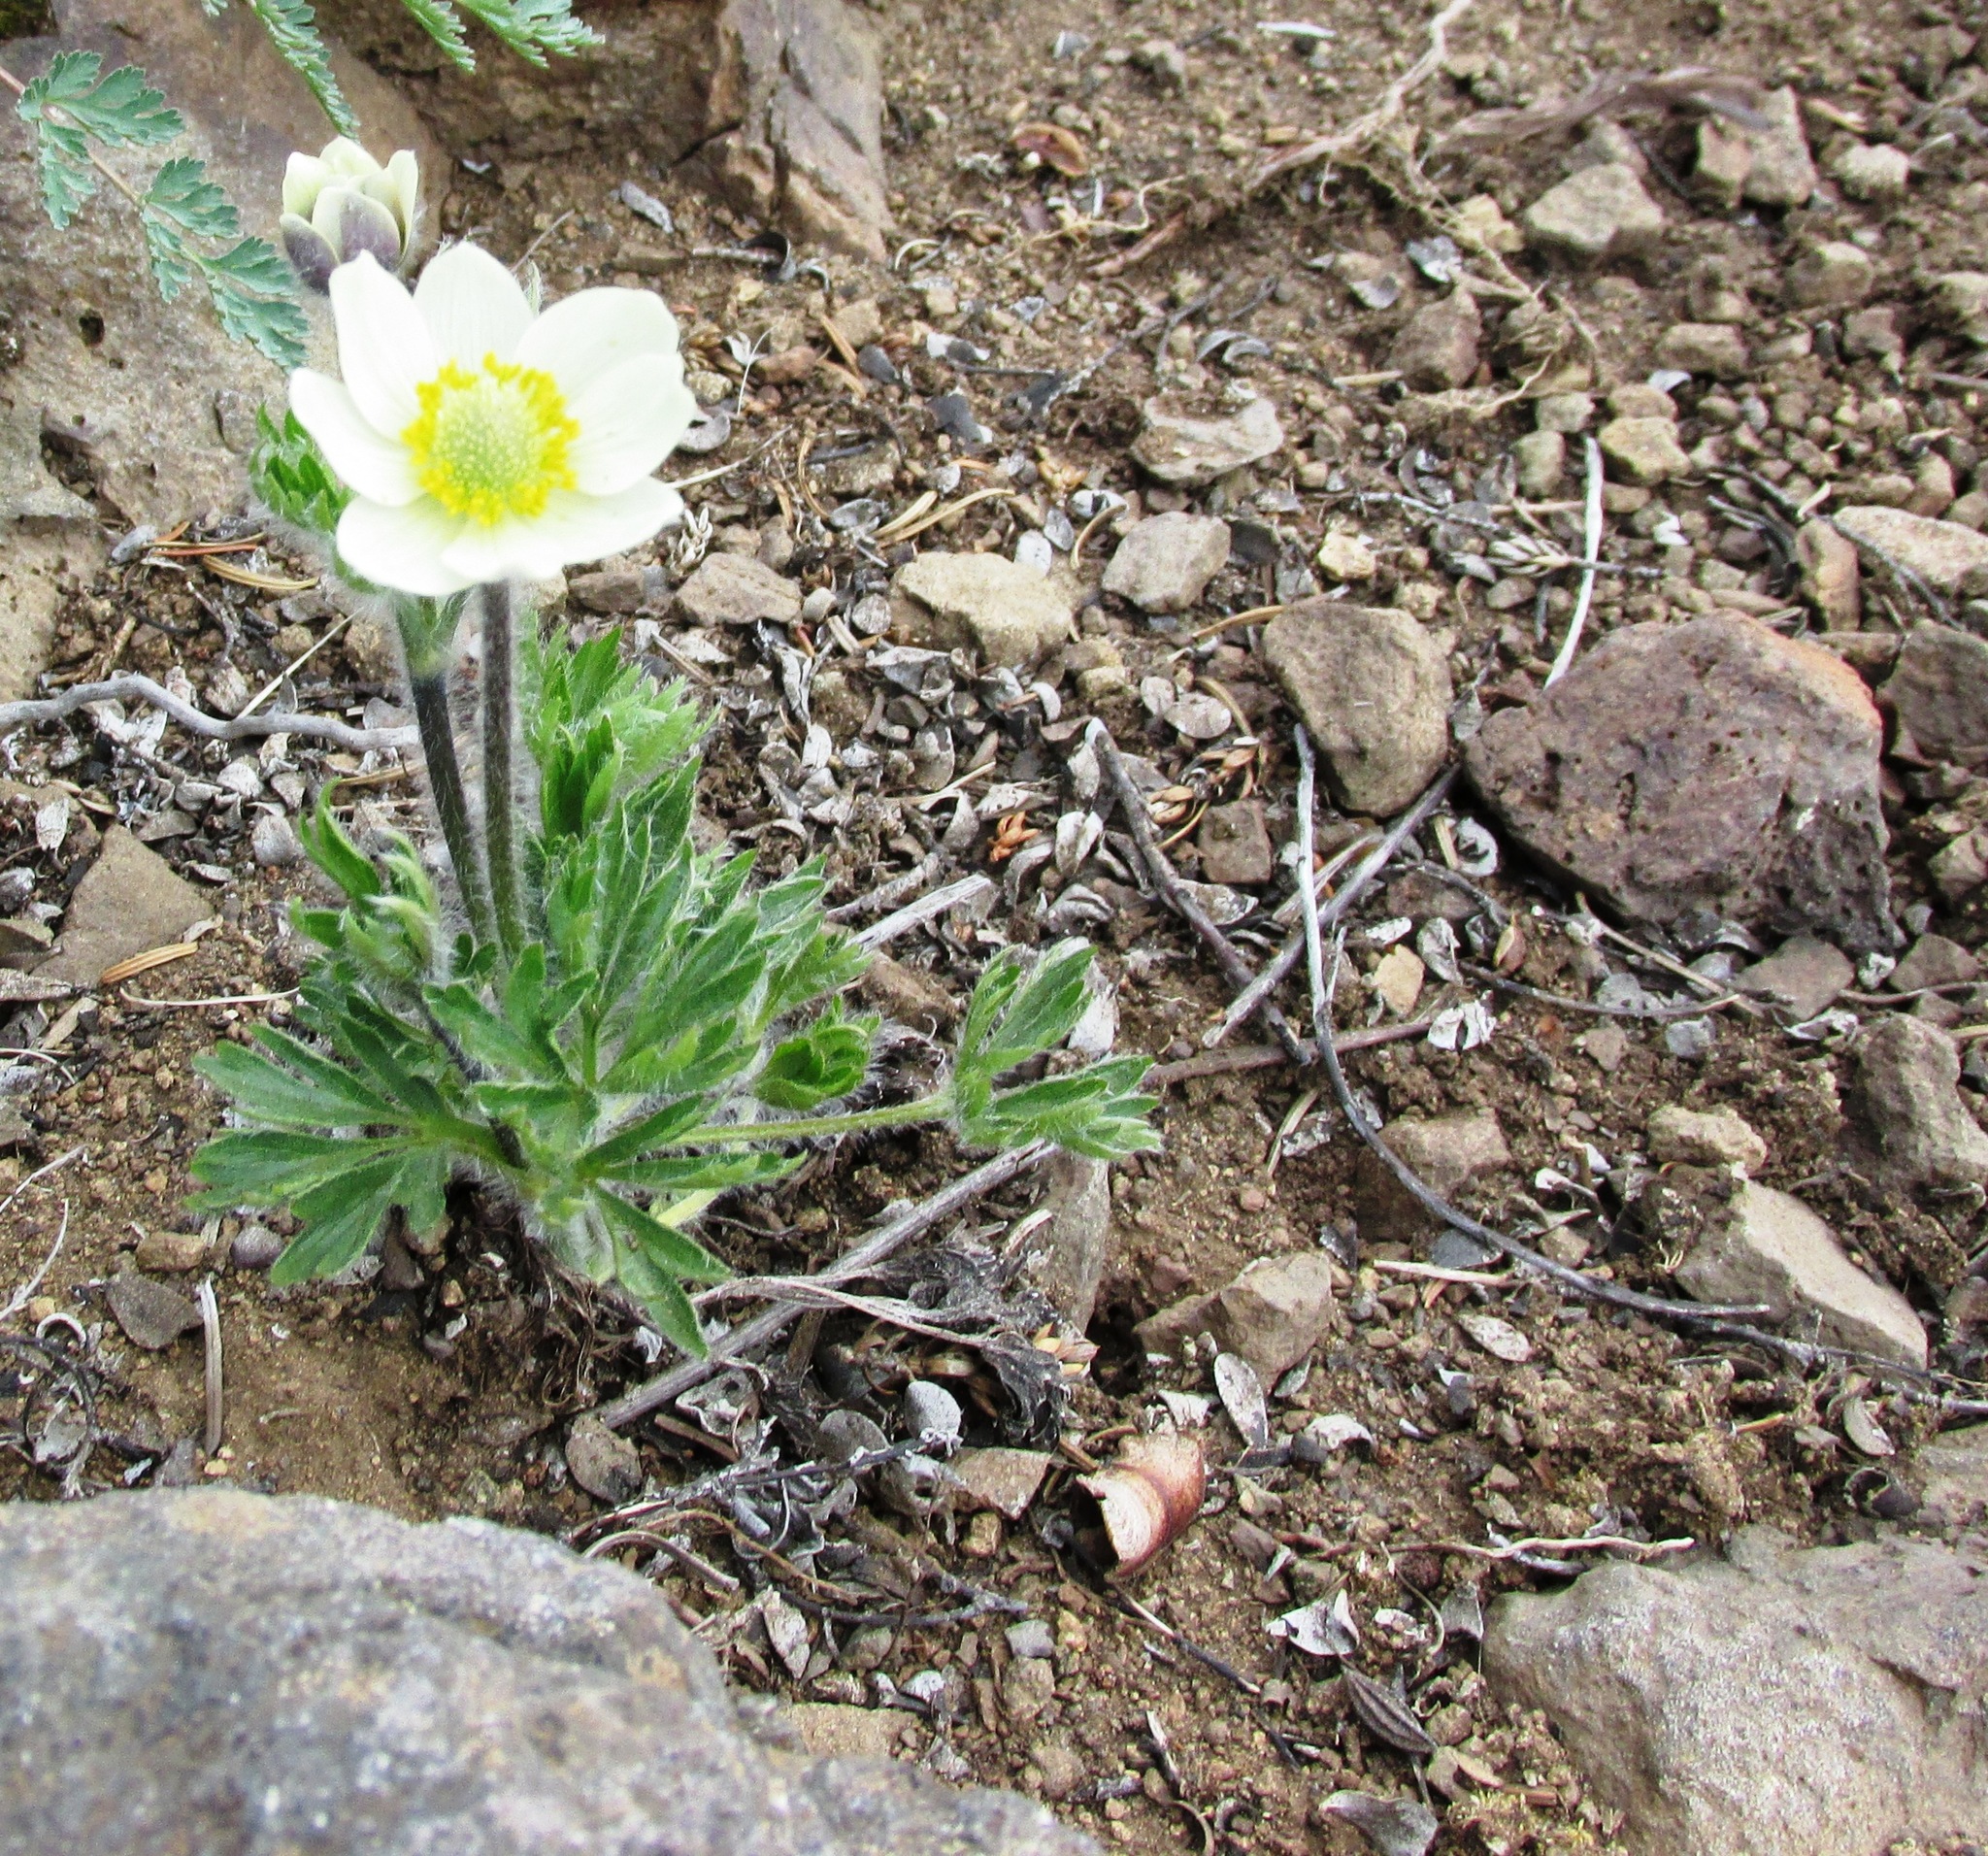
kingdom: Plantae
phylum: Tracheophyta
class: Magnoliopsida
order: Ranunculales
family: Ranunculaceae
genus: Anemone
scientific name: Anemone drummondii
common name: Drummond's anemone
